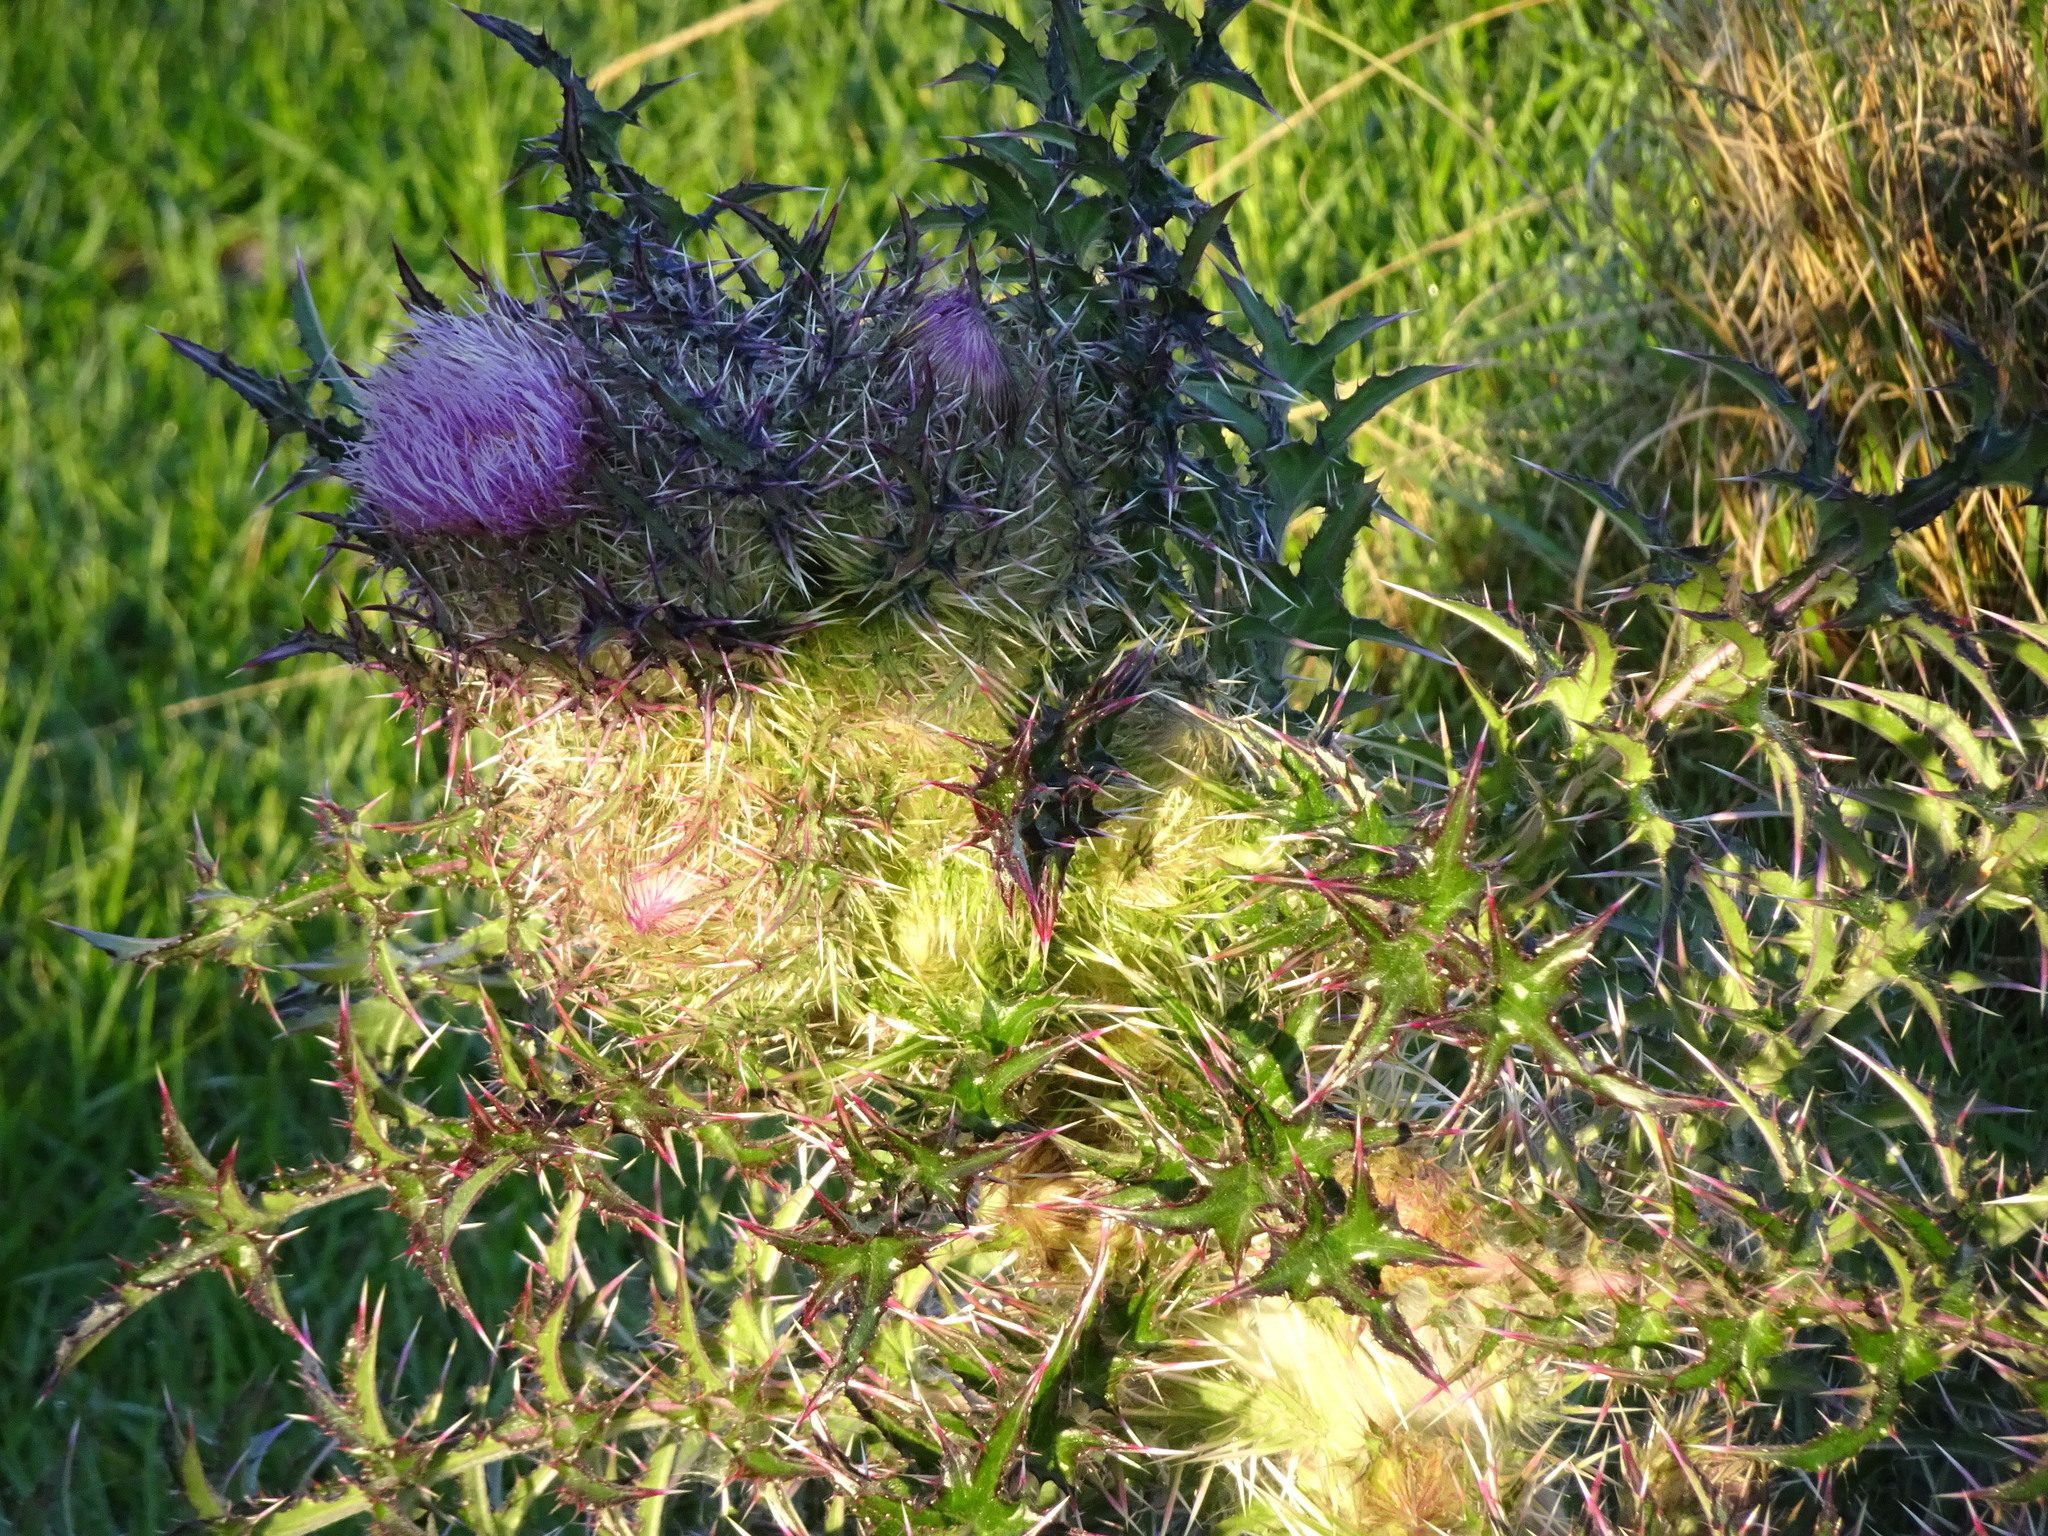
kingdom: Plantae
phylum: Tracheophyta
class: Magnoliopsida
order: Asterales
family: Asteraceae
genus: Cirsium
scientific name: Cirsium horridulum
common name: Bristly thistle
